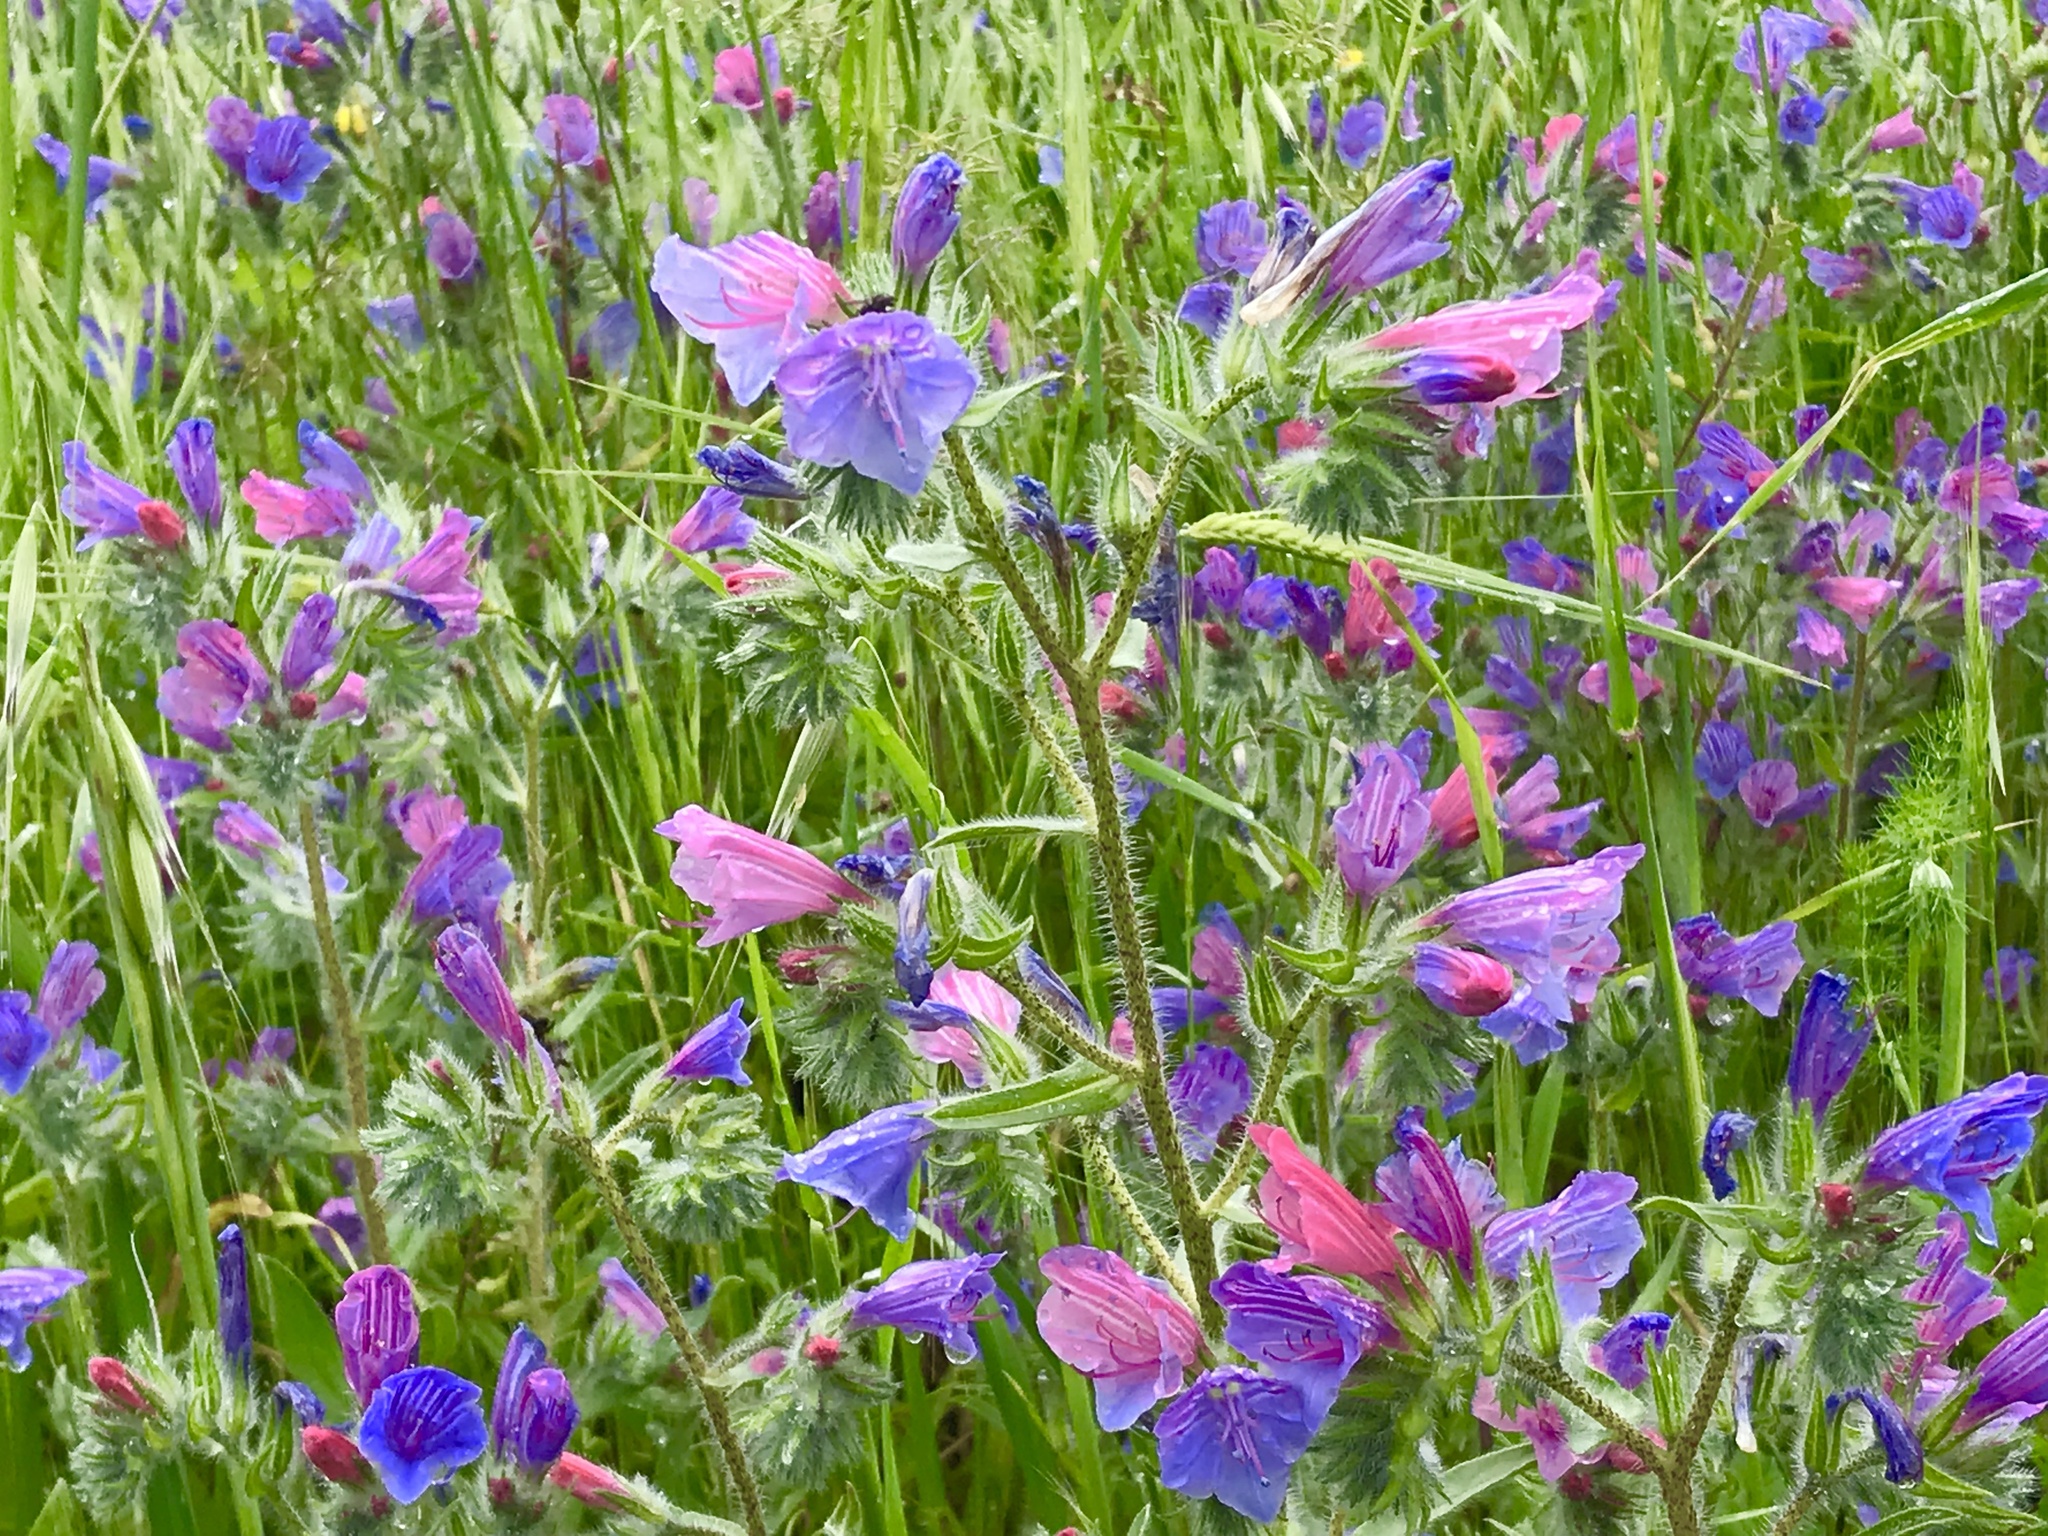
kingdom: Plantae
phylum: Tracheophyta
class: Magnoliopsida
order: Boraginales
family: Boraginaceae
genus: Echium
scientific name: Echium judaeum
